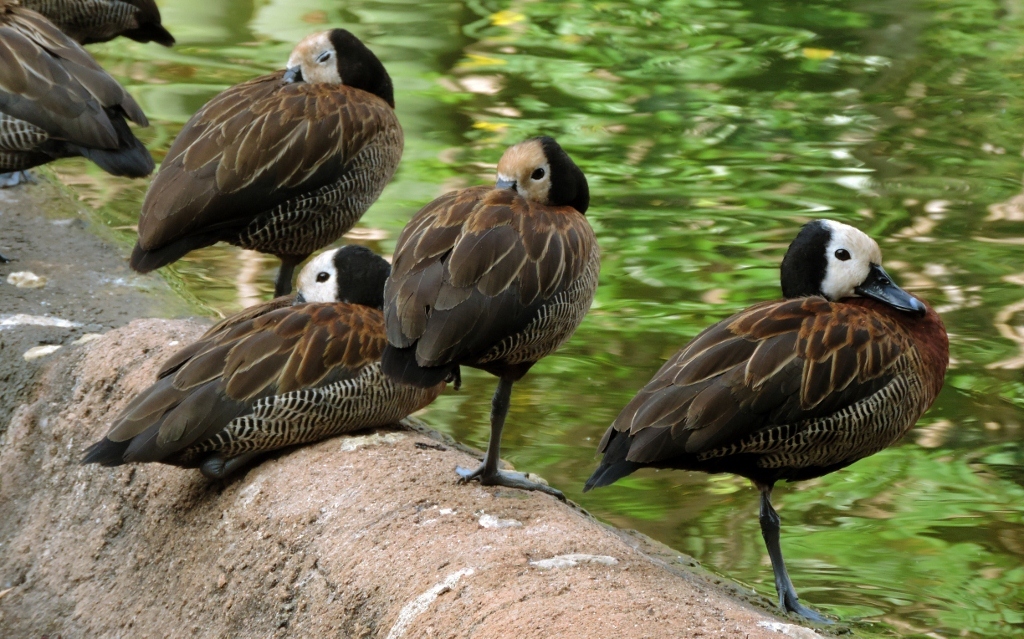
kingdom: Animalia
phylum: Chordata
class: Aves
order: Anseriformes
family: Anatidae
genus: Dendrocygna
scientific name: Dendrocygna viduata
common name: White-faced whistling duck
